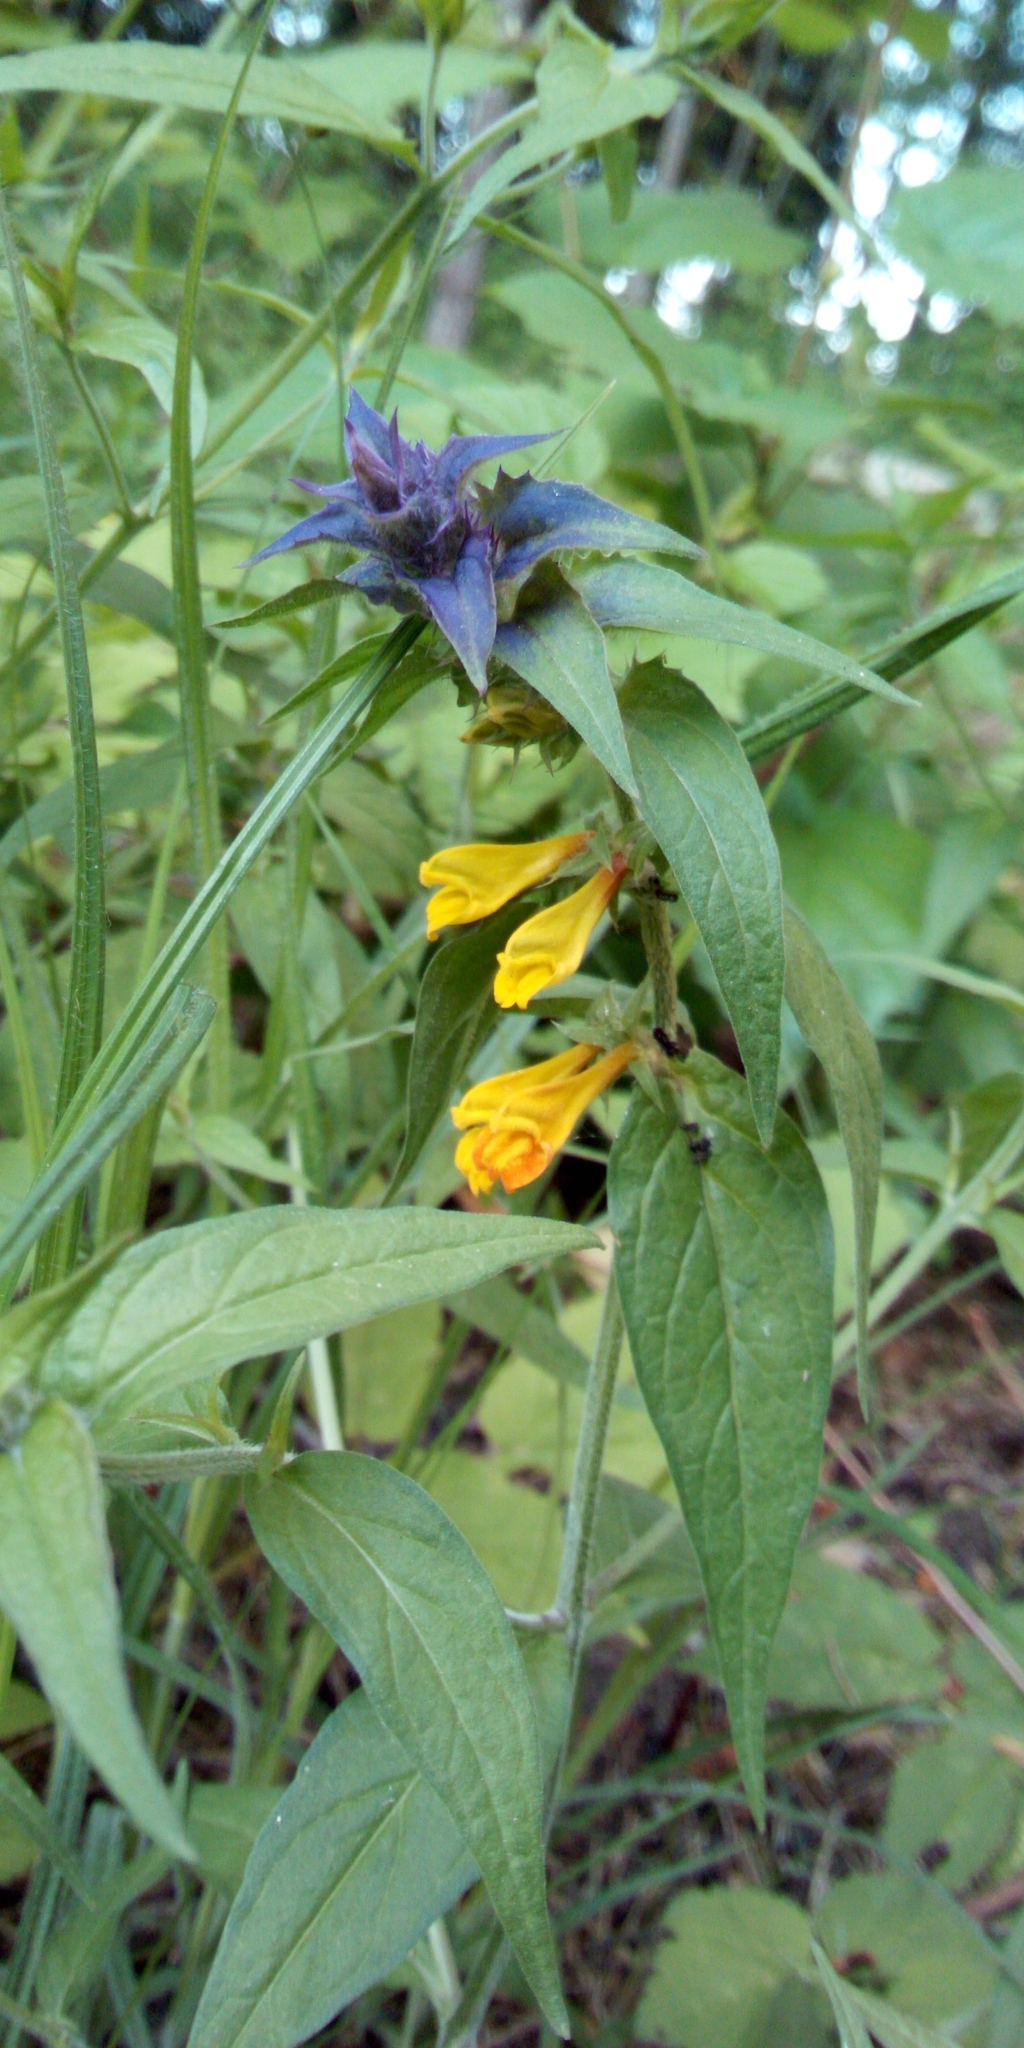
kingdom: Plantae
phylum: Tracheophyta
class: Magnoliopsida
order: Lamiales
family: Orobanchaceae
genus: Melampyrum
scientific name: Melampyrum nemorosum
